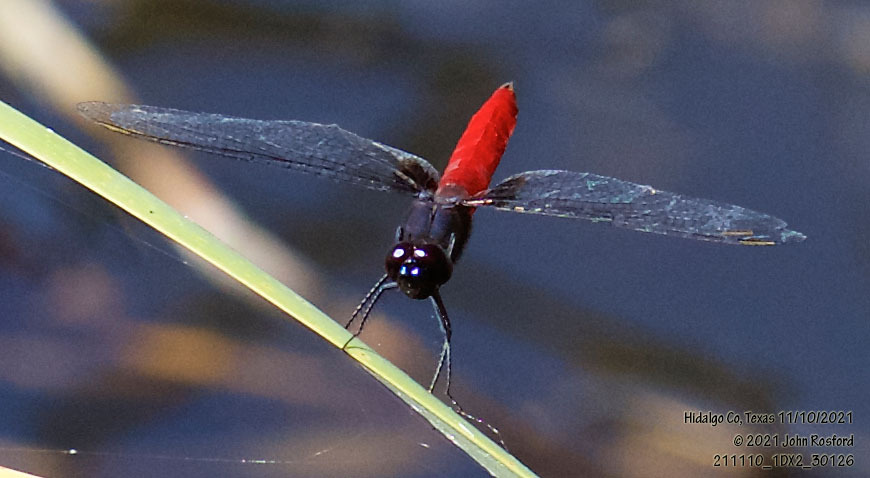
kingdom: Animalia
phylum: Arthropoda
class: Insecta
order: Odonata
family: Libellulidae
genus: Planiplax
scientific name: Planiplax sanguiniventris
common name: Mexican scarlet-tail
